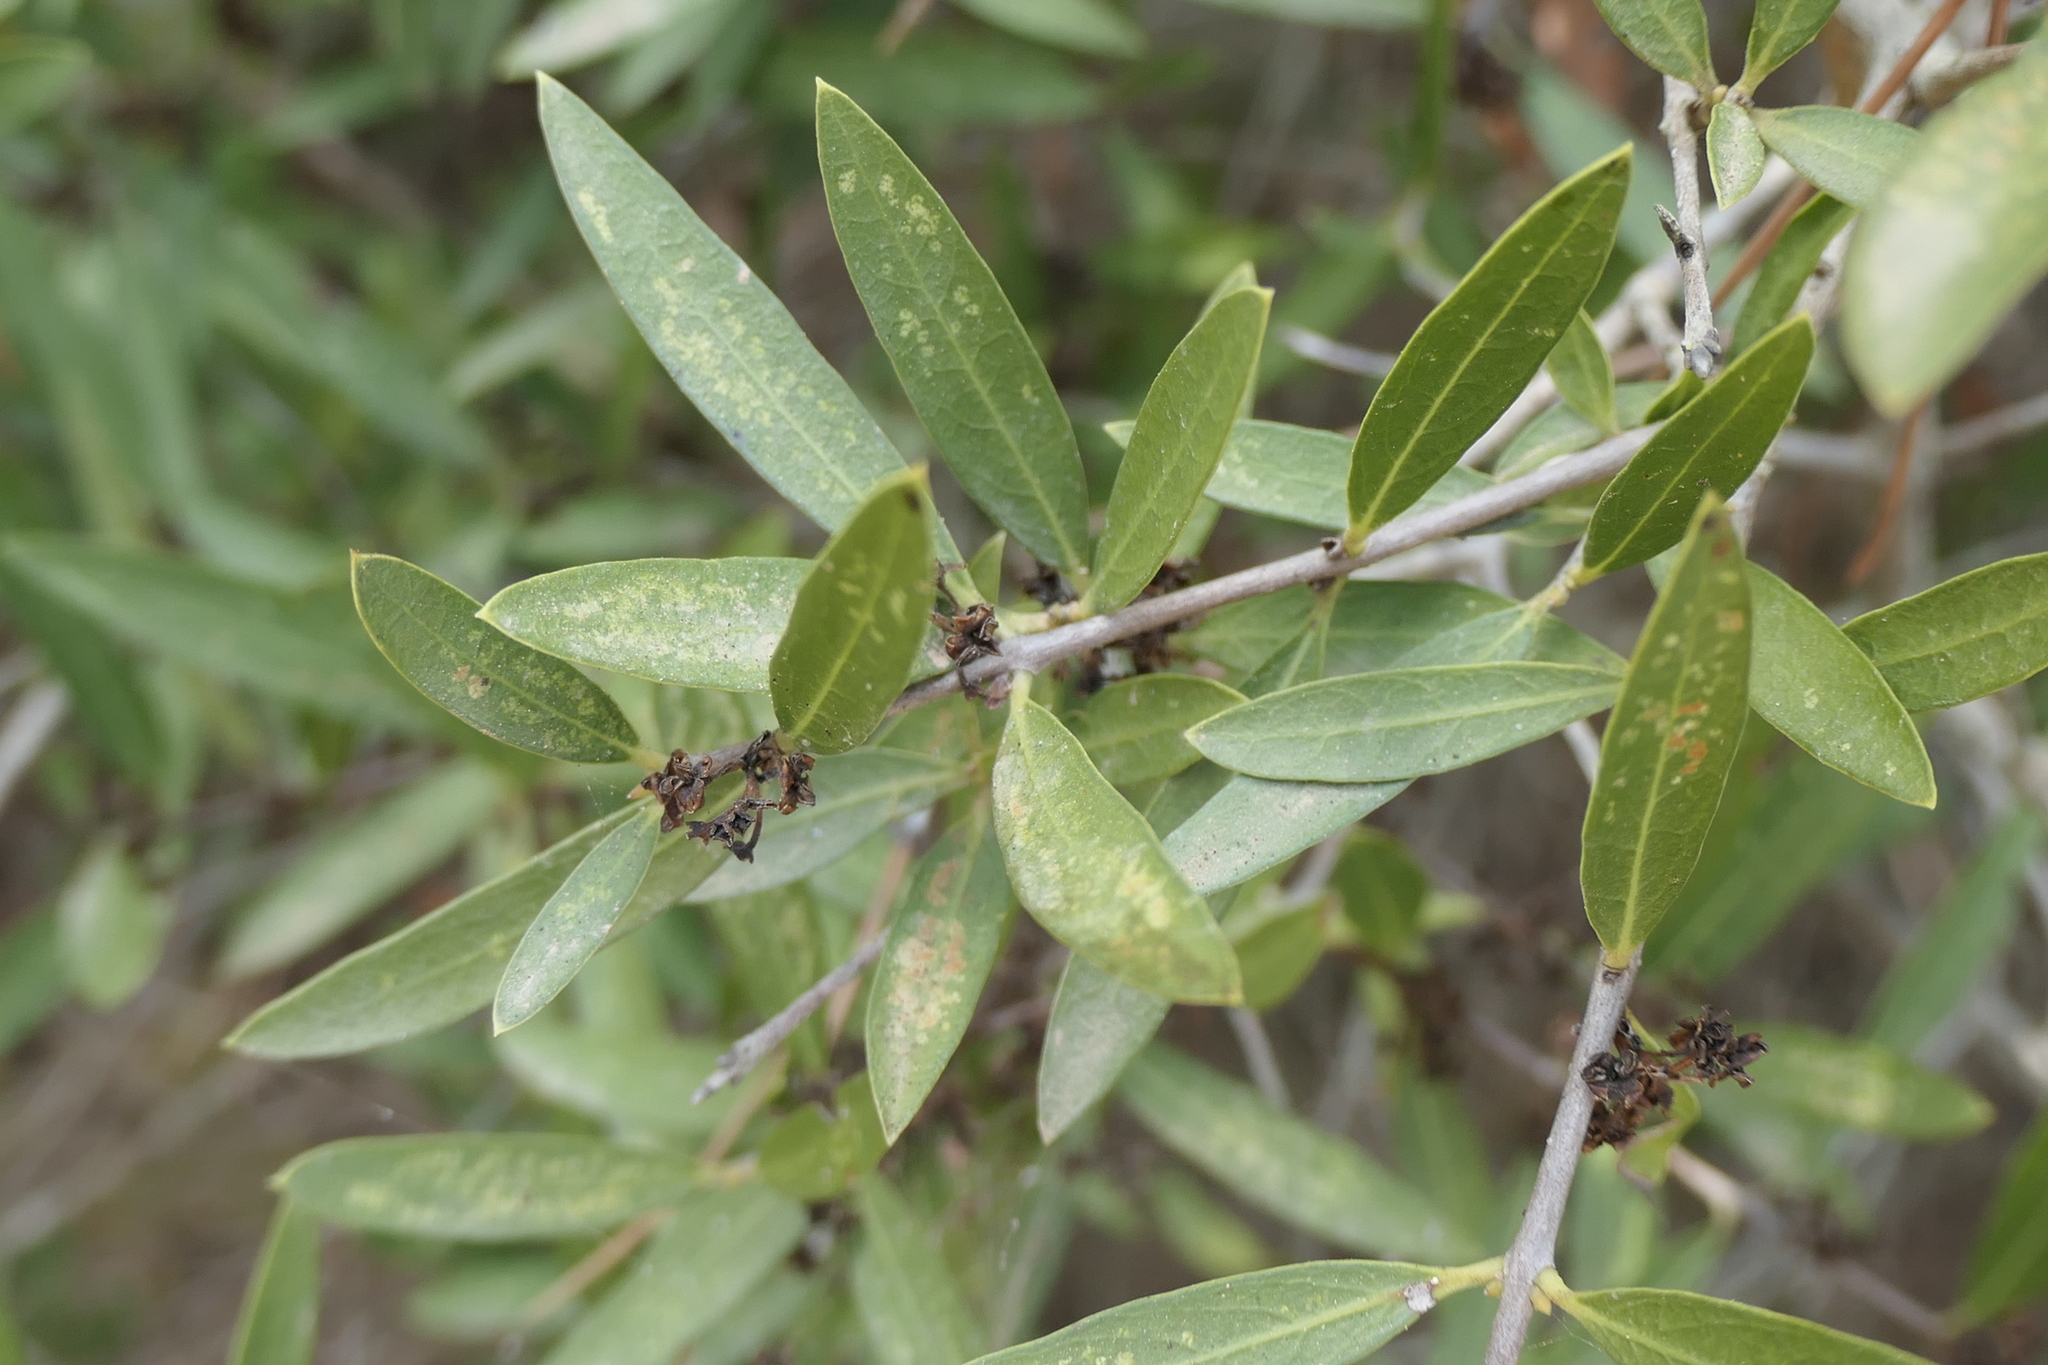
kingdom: Plantae
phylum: Tracheophyta
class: Magnoliopsida
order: Lamiales
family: Oleaceae
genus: Phillyrea
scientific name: Phillyrea angustifolia
